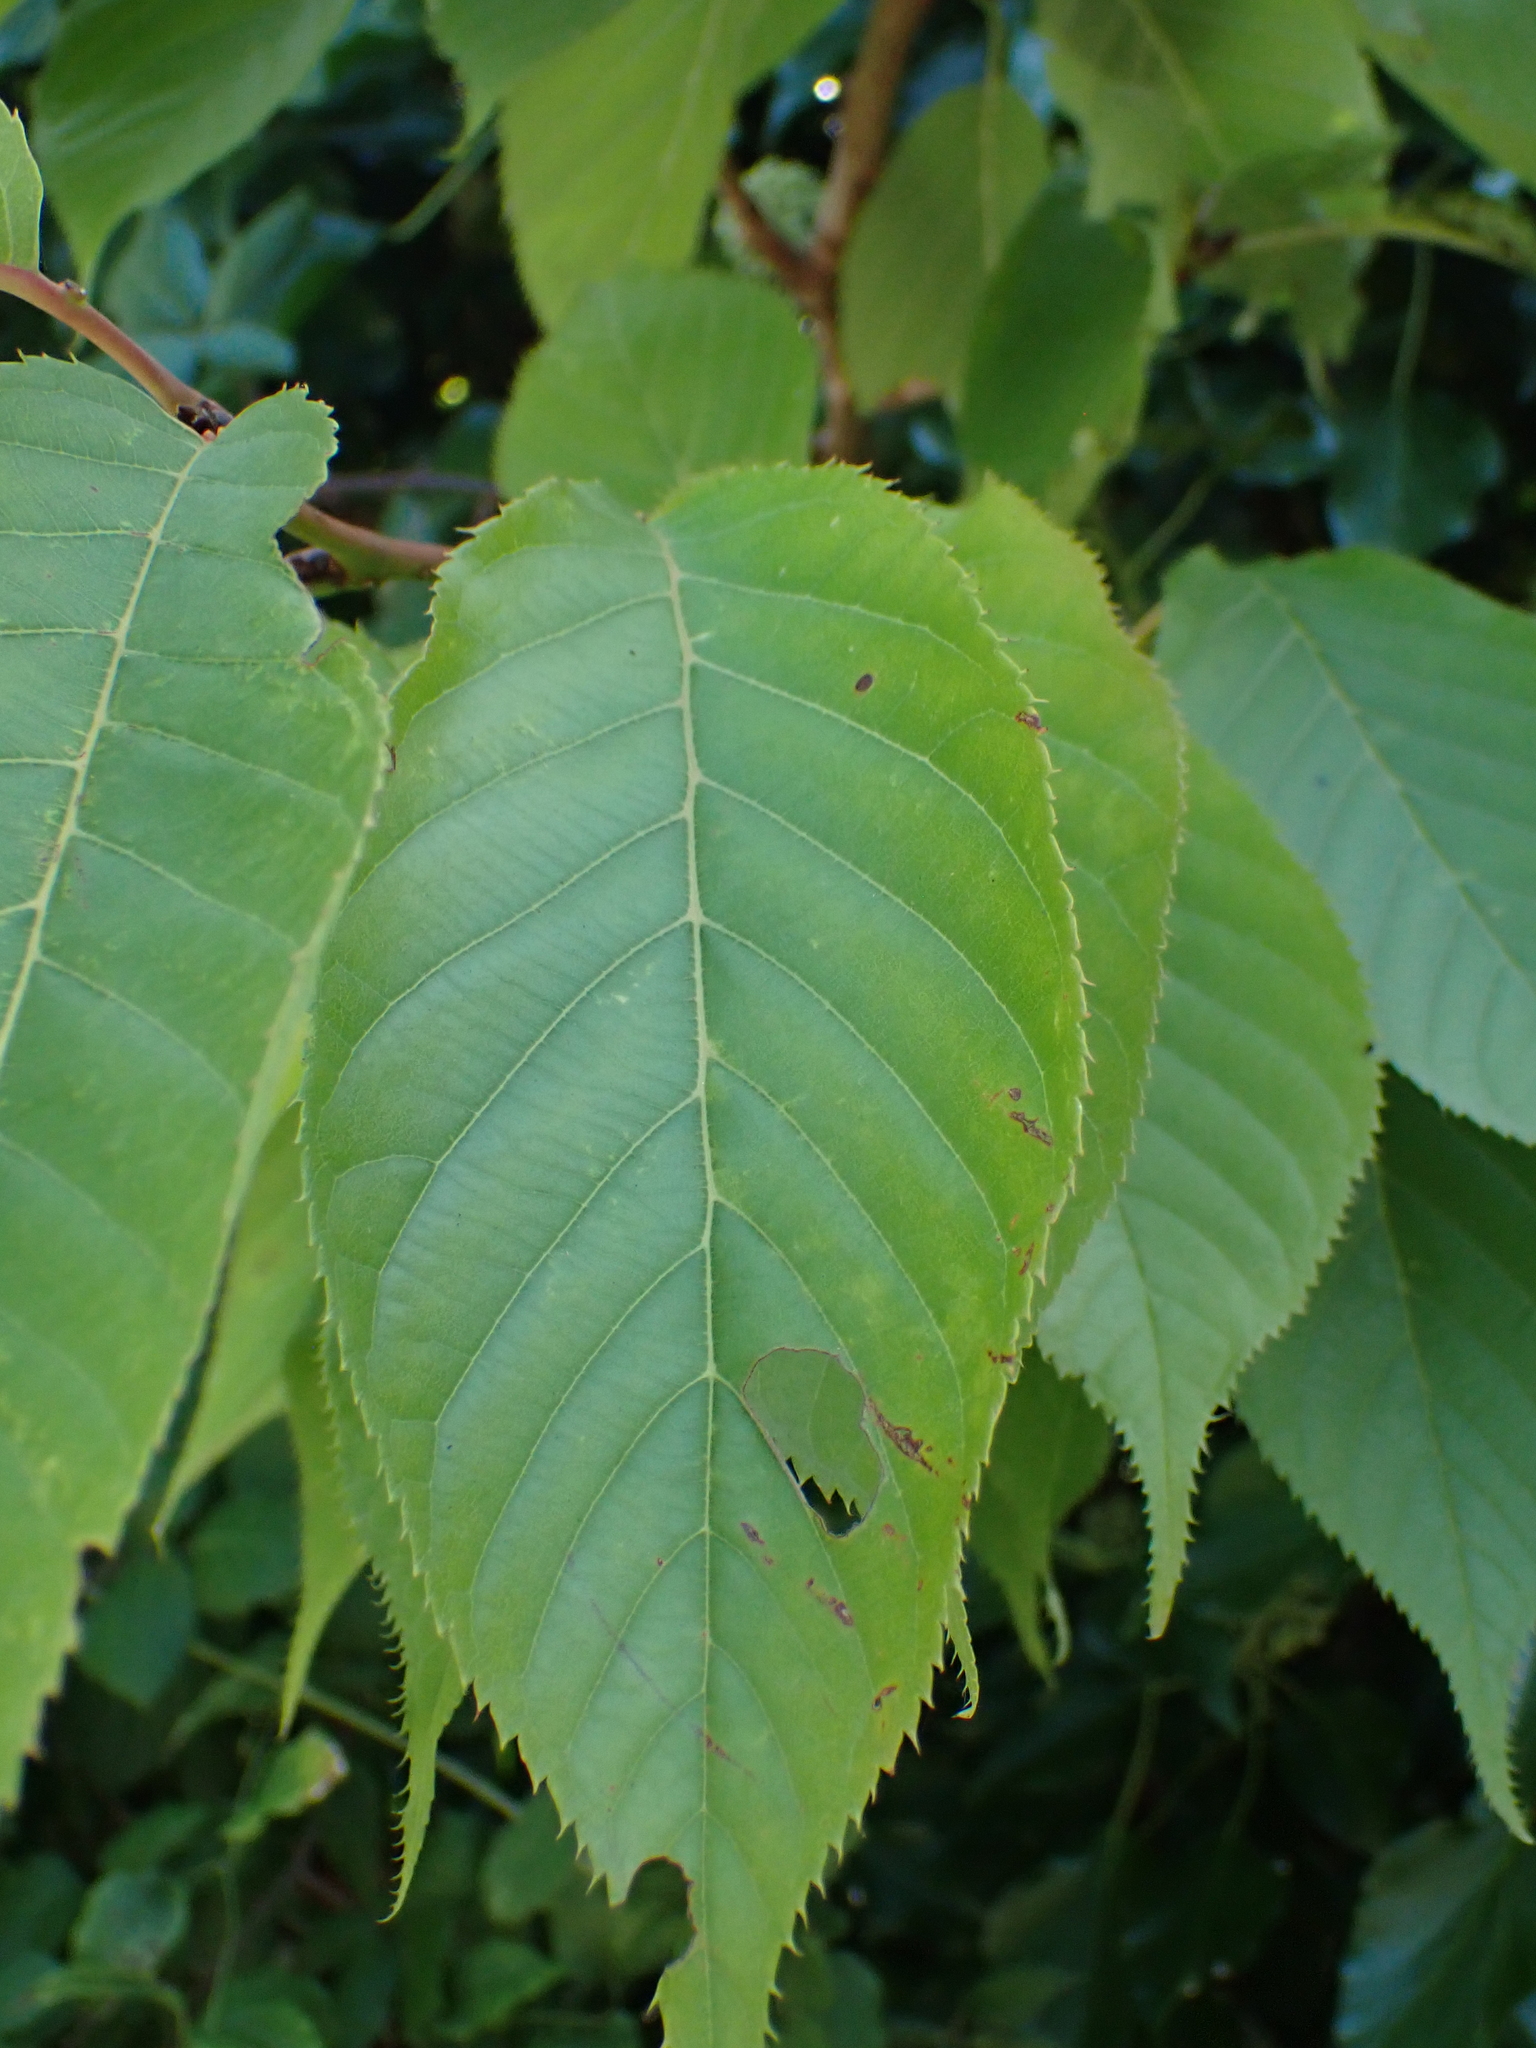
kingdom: Plantae
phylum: Tracheophyta
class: Magnoliopsida
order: Rosales
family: Rosaceae
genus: Prunus
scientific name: Prunus avium
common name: Sweet cherry
